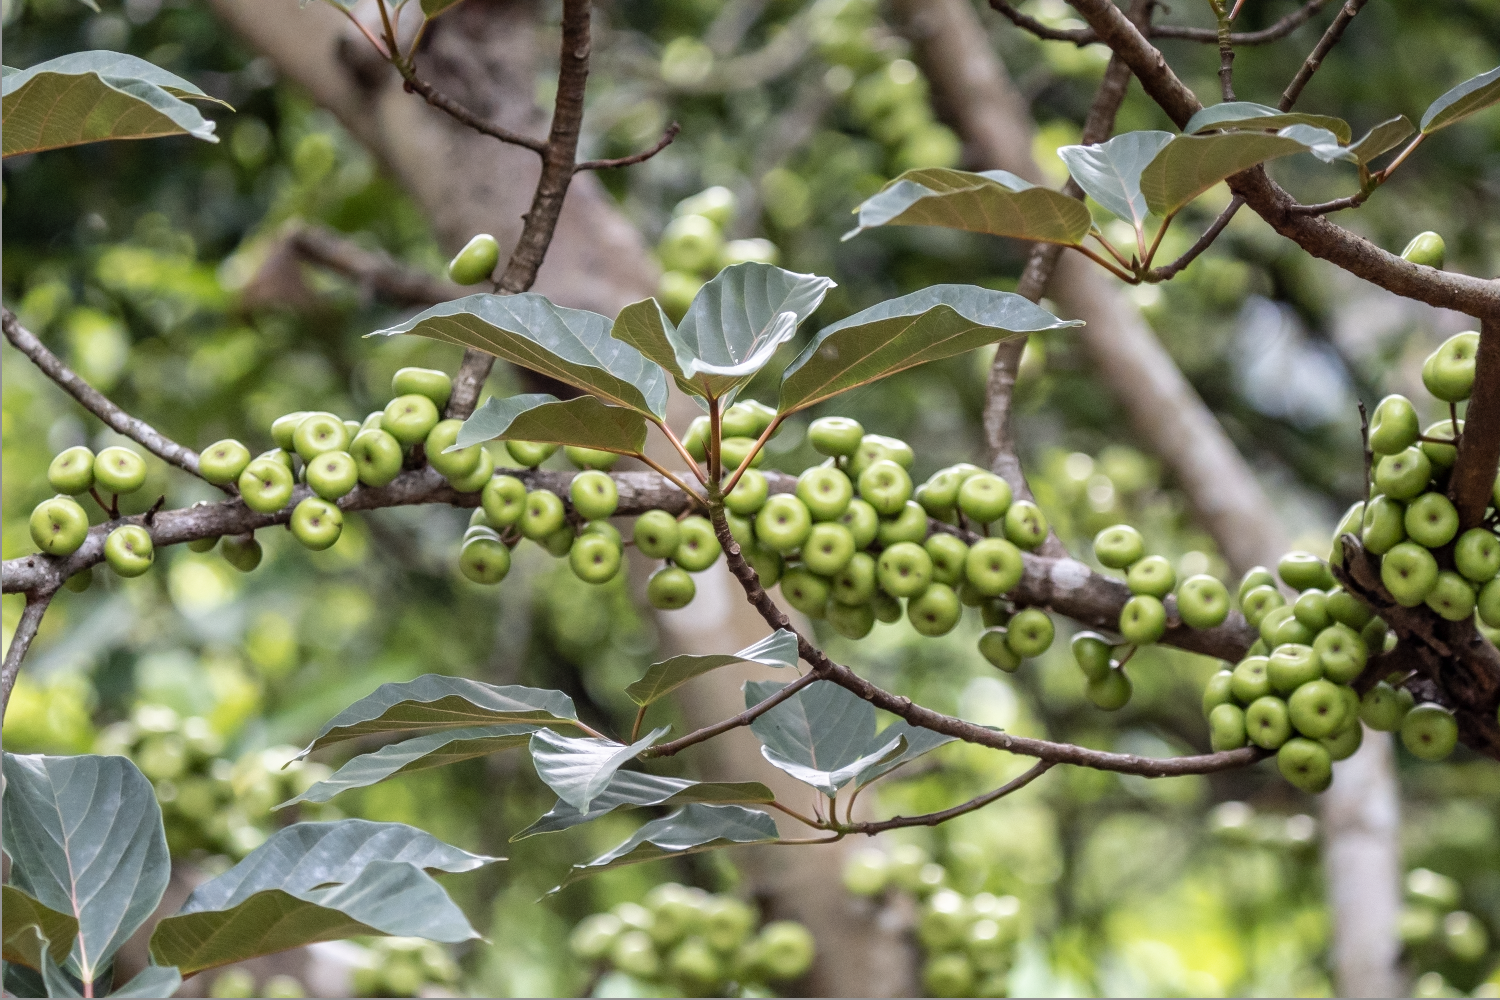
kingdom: Plantae
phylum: Tracheophyta
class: Magnoliopsida
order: Rosales
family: Moraceae
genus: Ficus
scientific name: Ficus variegata
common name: Variegated fig
